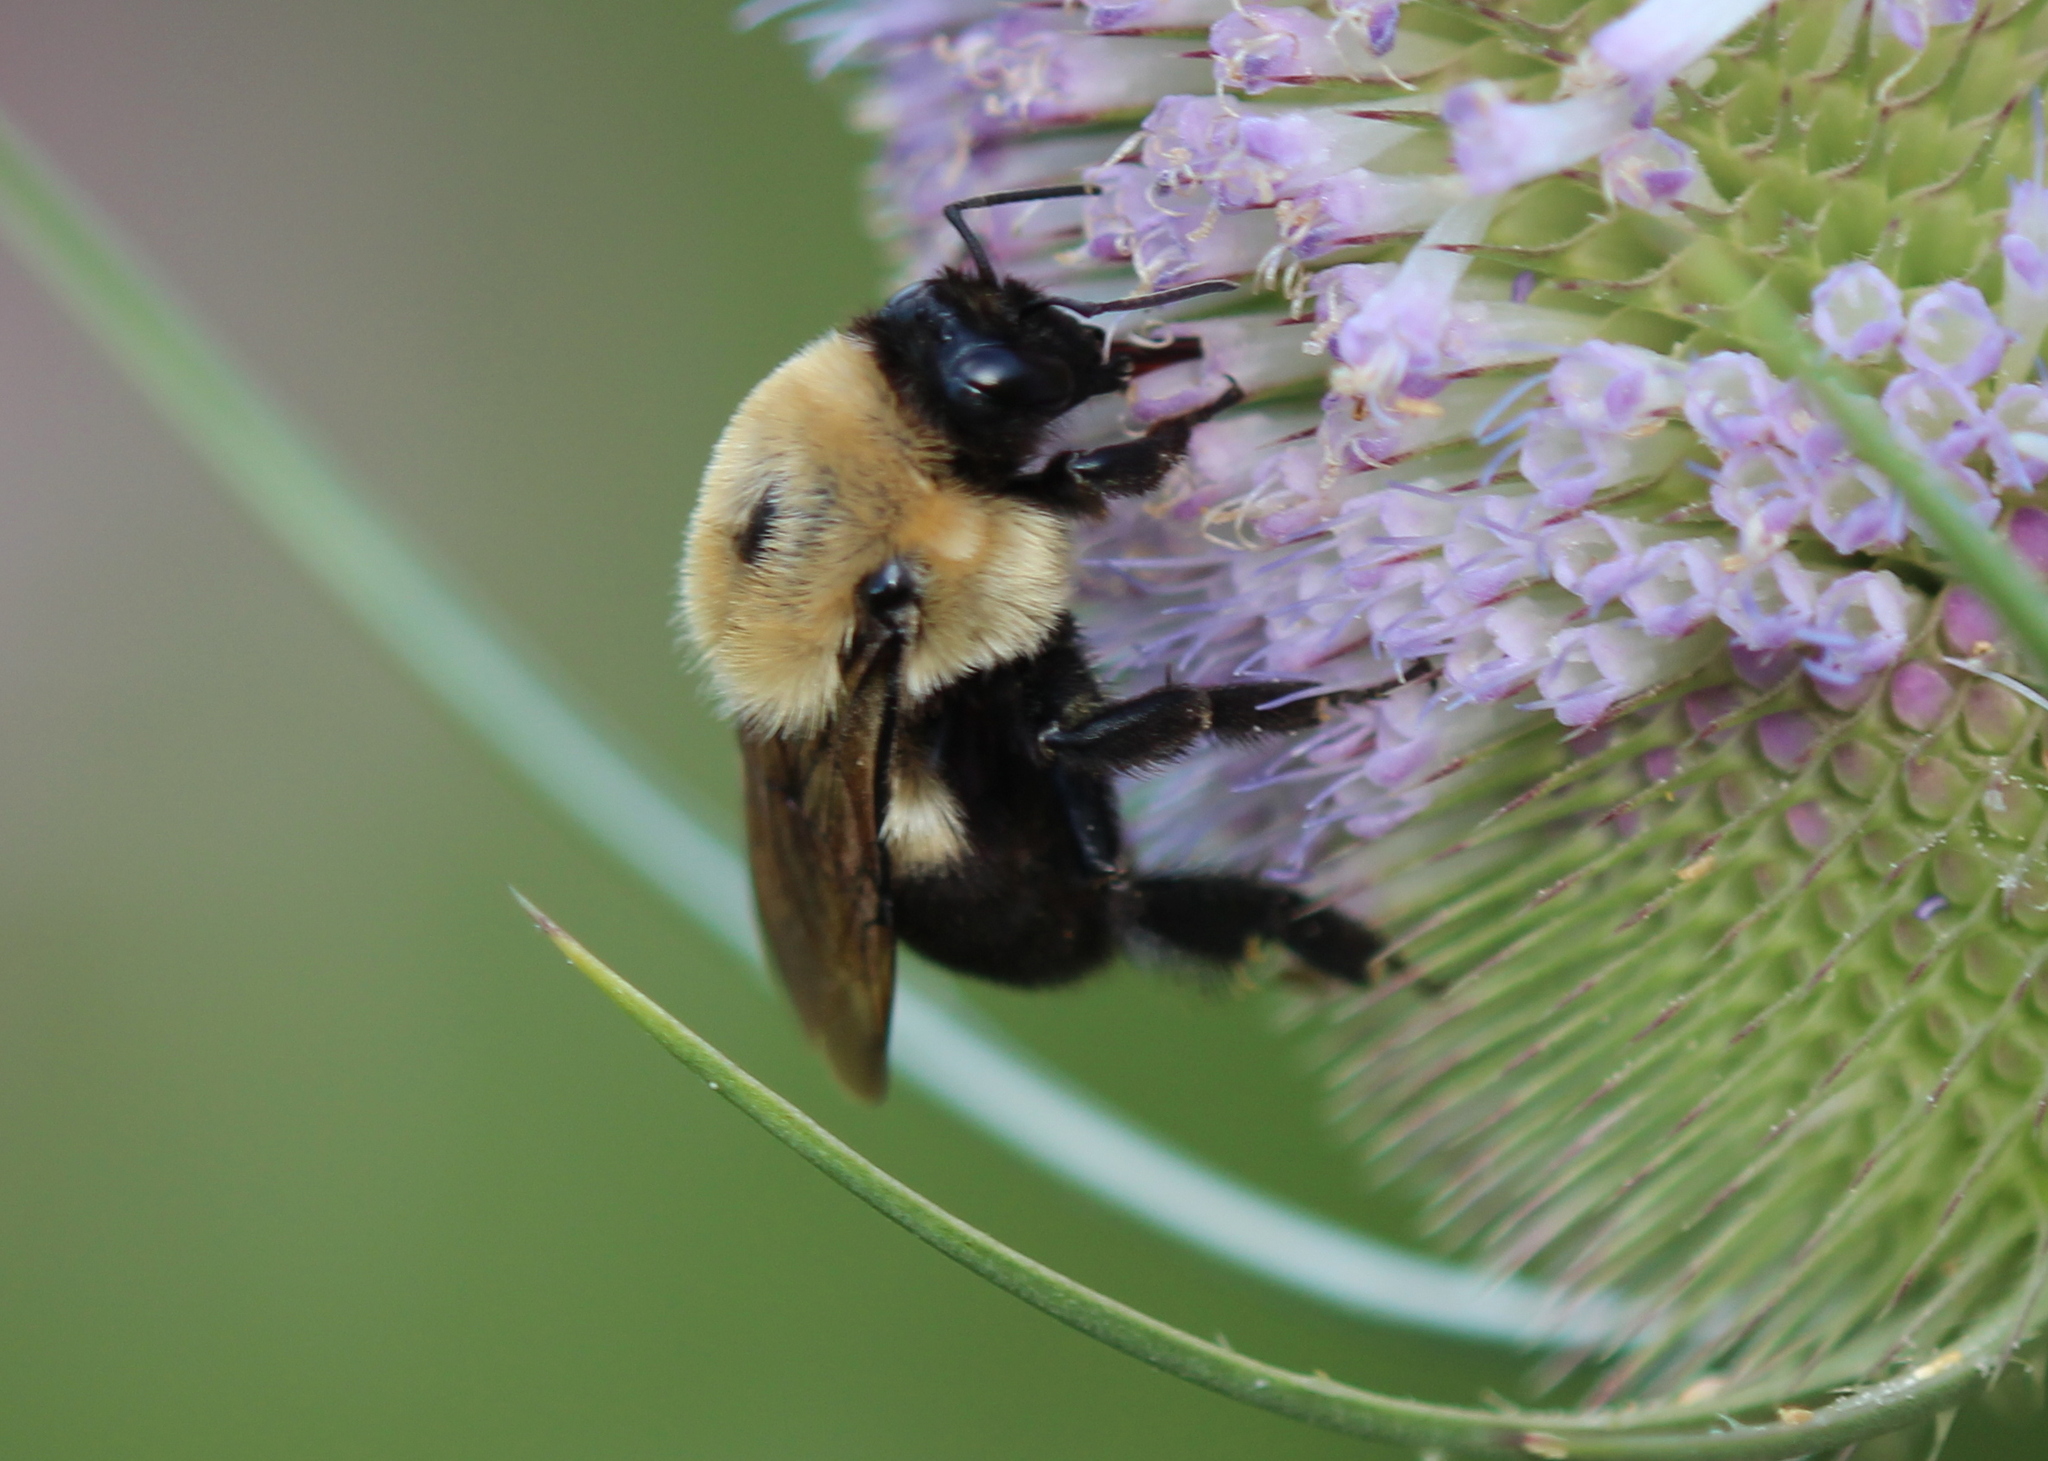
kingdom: Animalia
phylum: Arthropoda
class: Insecta
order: Hymenoptera
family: Apidae
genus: Bombus
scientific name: Bombus griseocollis
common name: Brown-belted bumble bee
